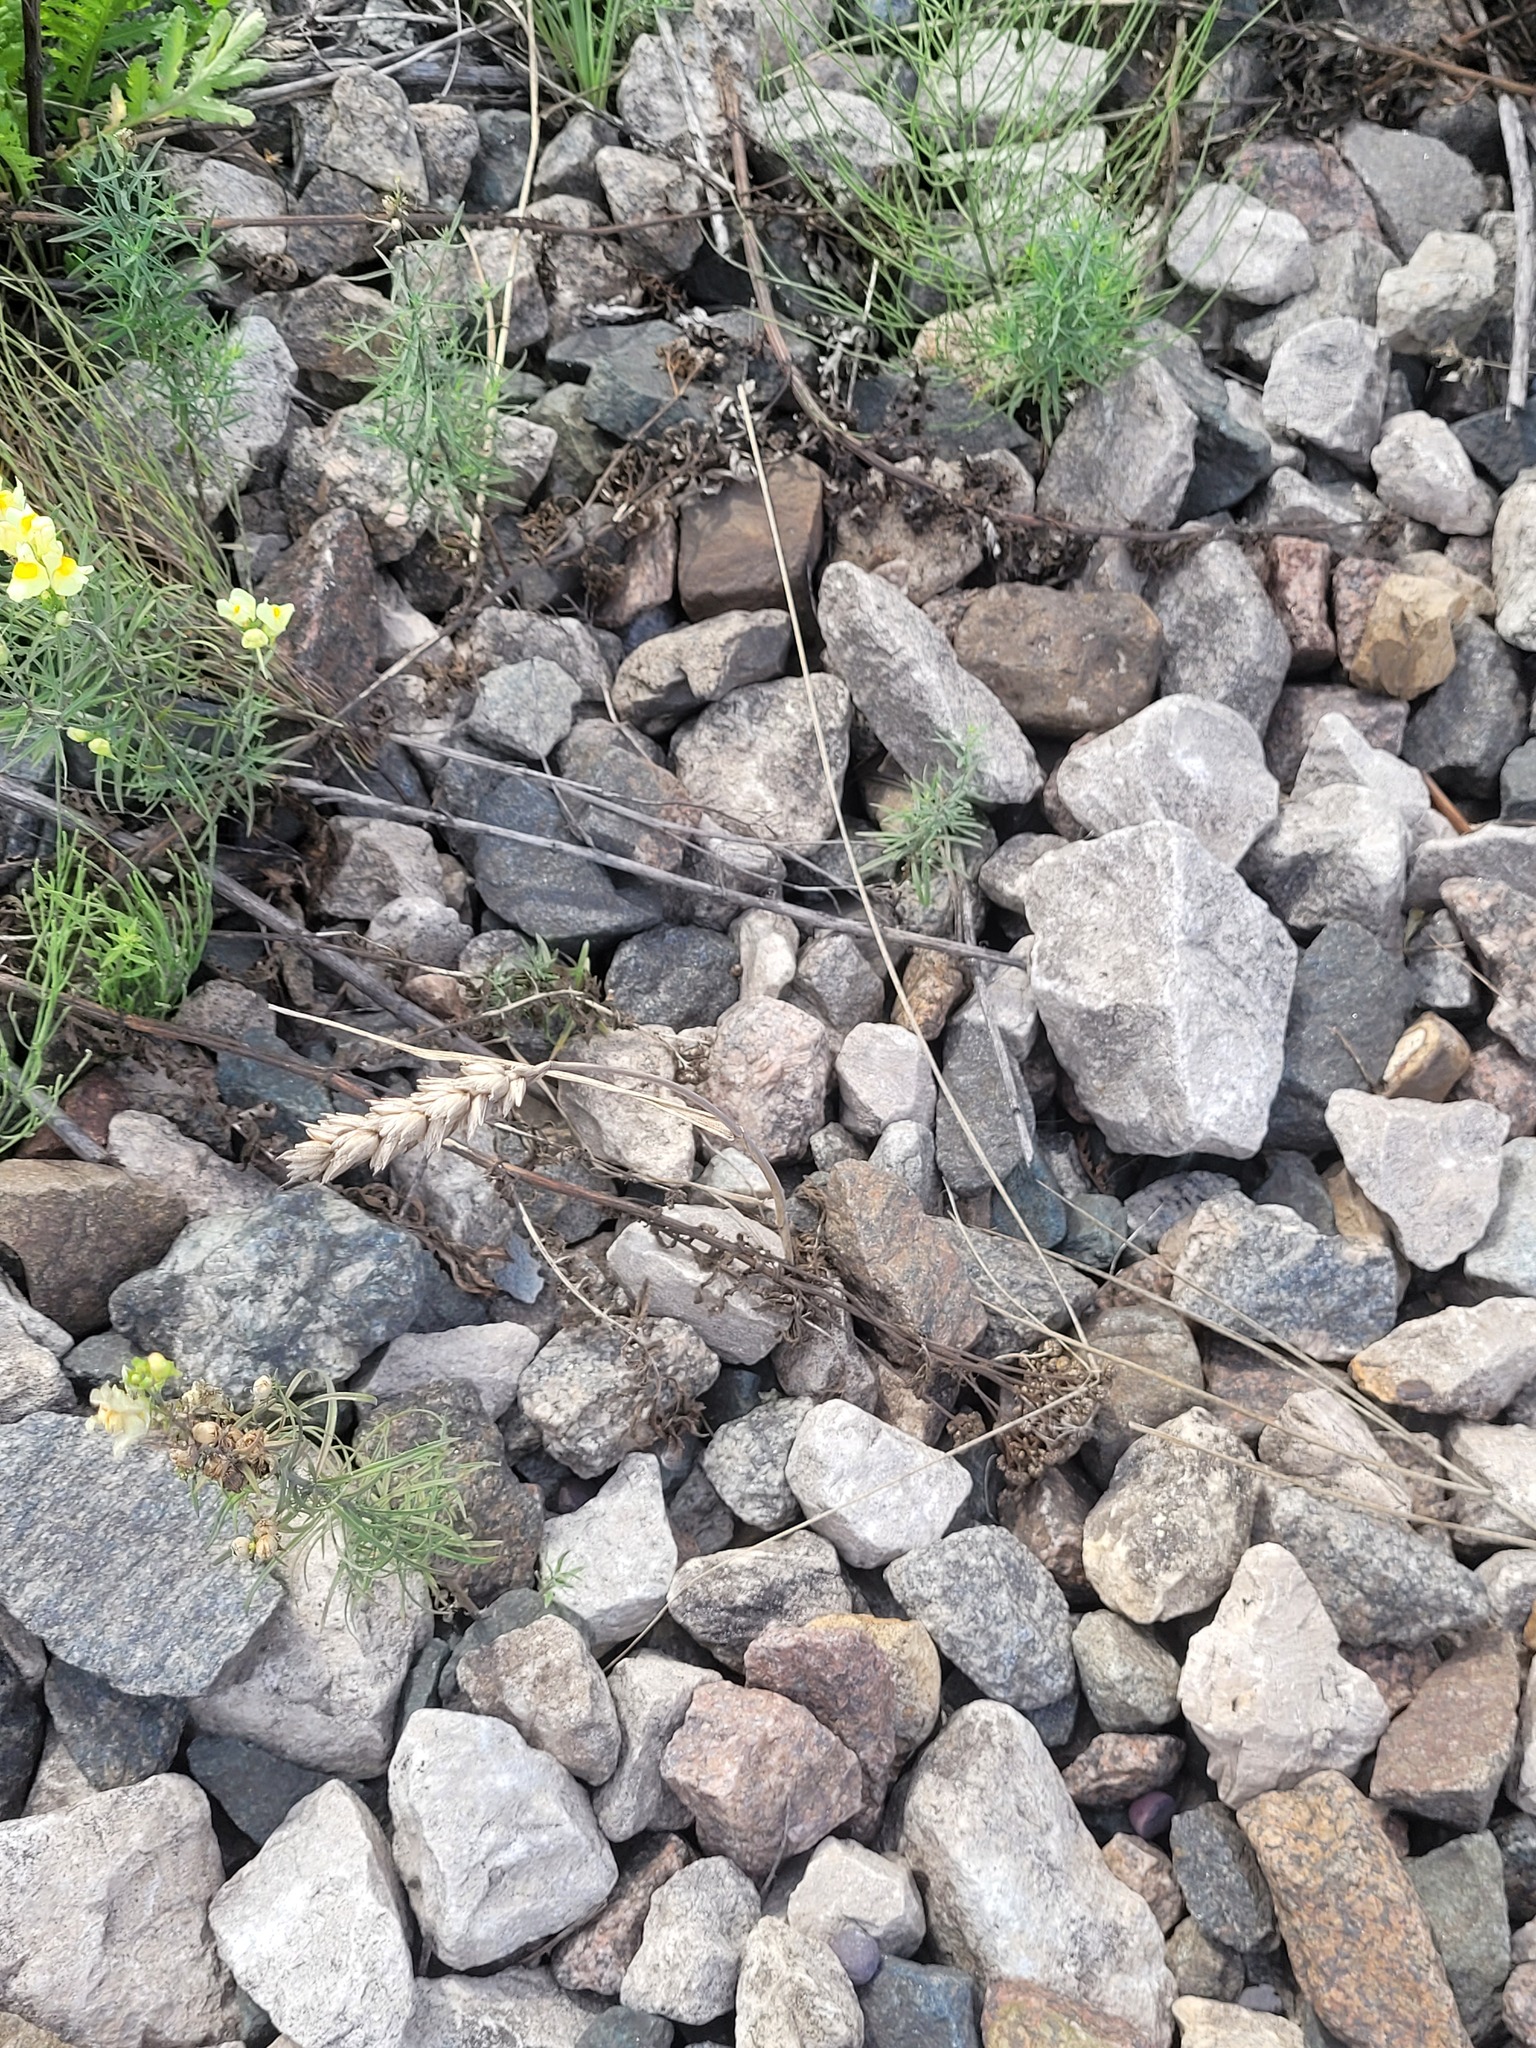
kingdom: Plantae
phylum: Tracheophyta
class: Liliopsida
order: Poales
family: Poaceae
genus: Triticum
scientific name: Triticum aestivum
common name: Common wheat
